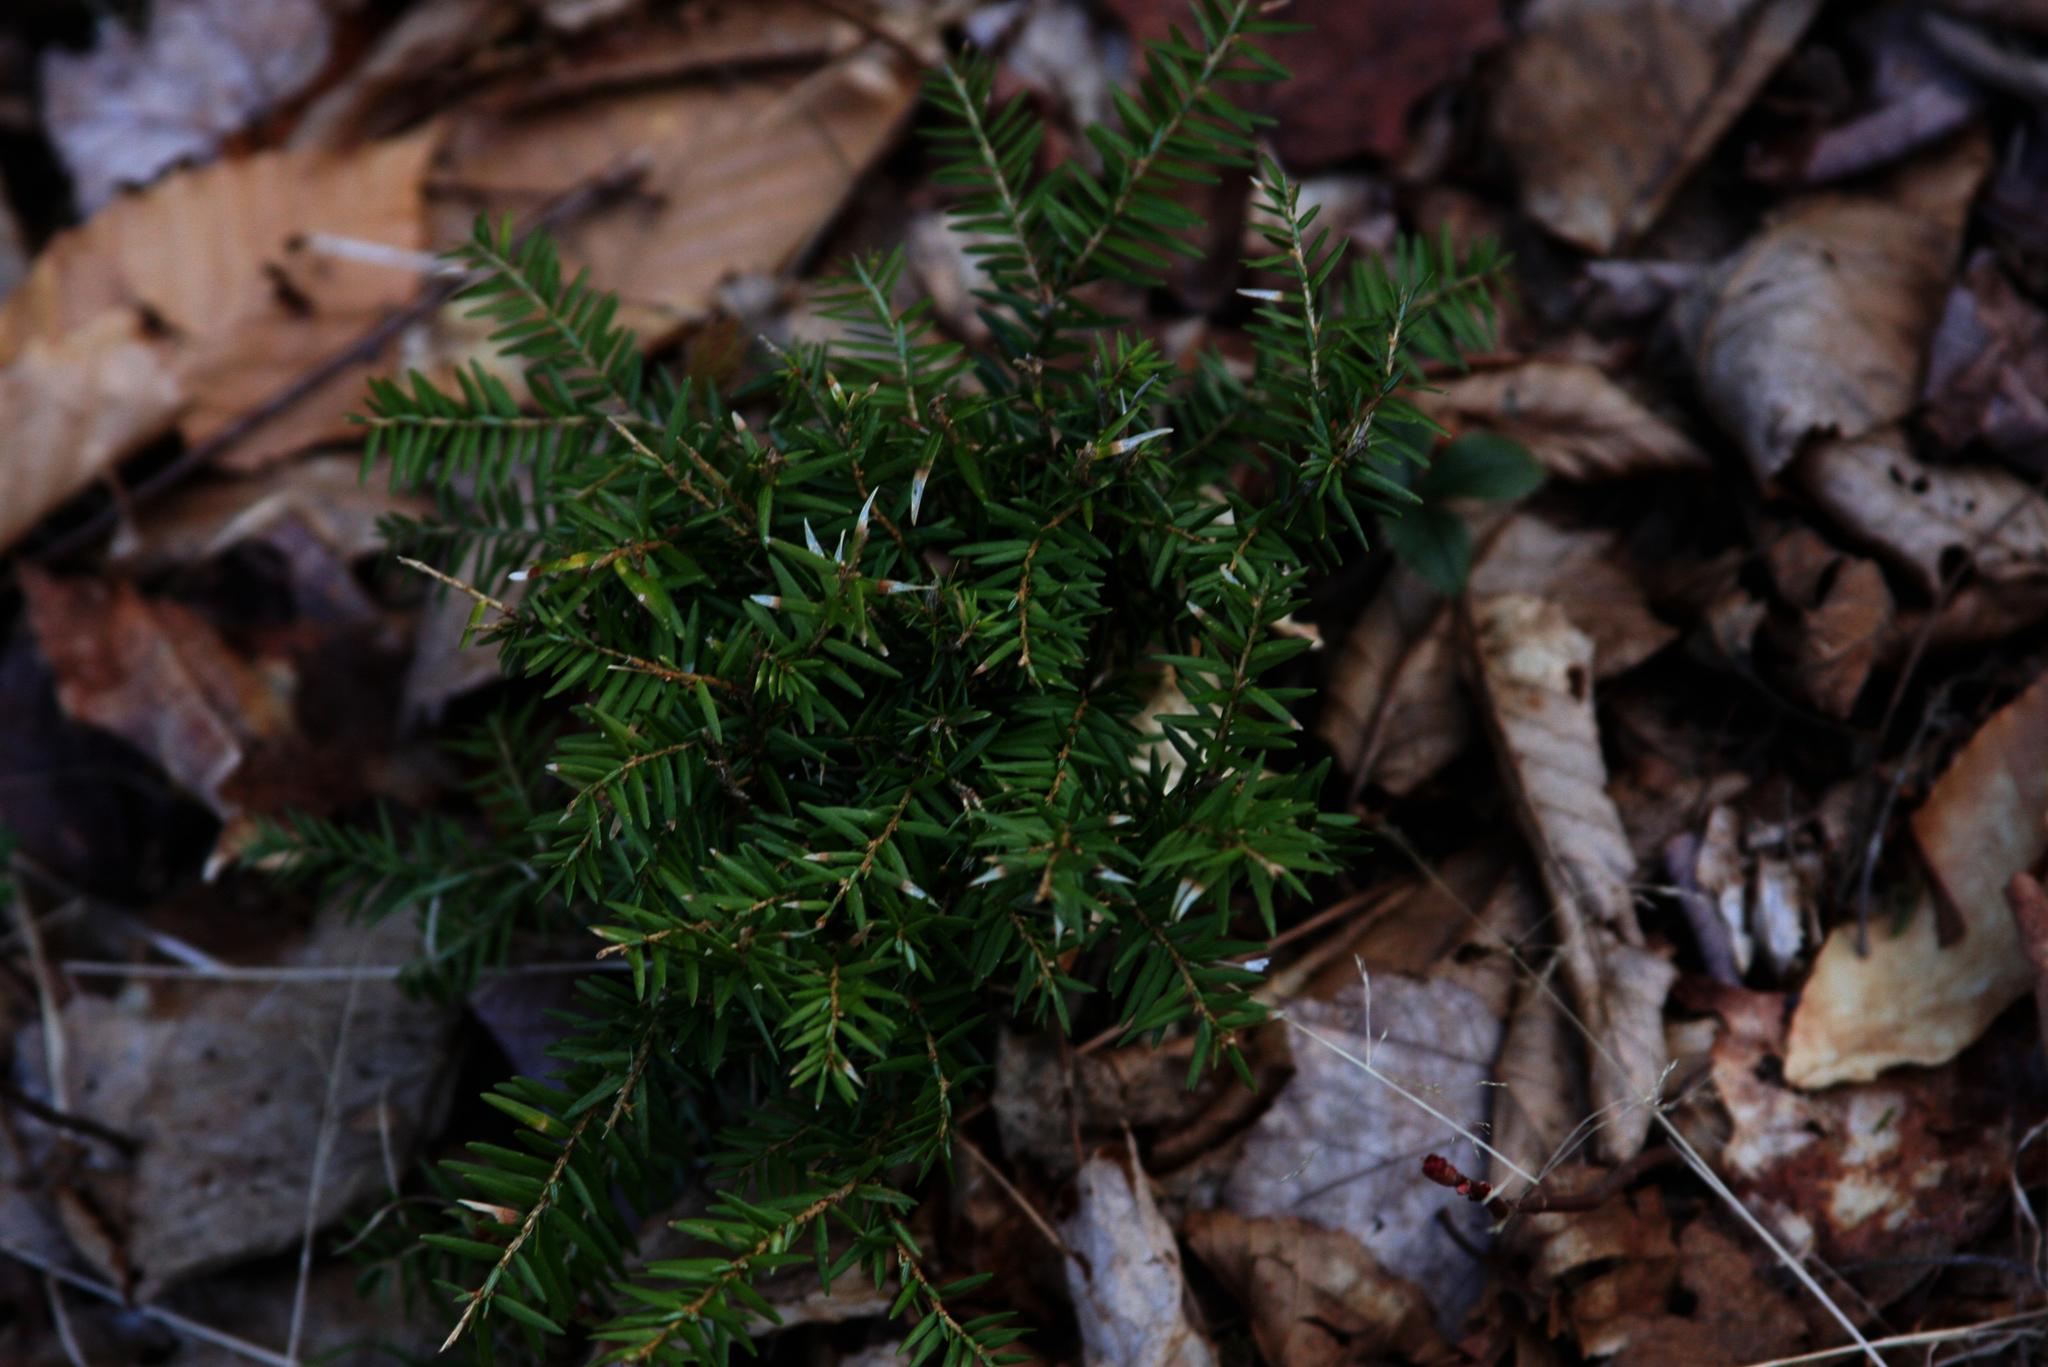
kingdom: Plantae
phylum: Tracheophyta
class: Pinopsida
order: Pinales
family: Pinaceae
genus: Tsuga
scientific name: Tsuga canadensis
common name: Eastern hemlock
